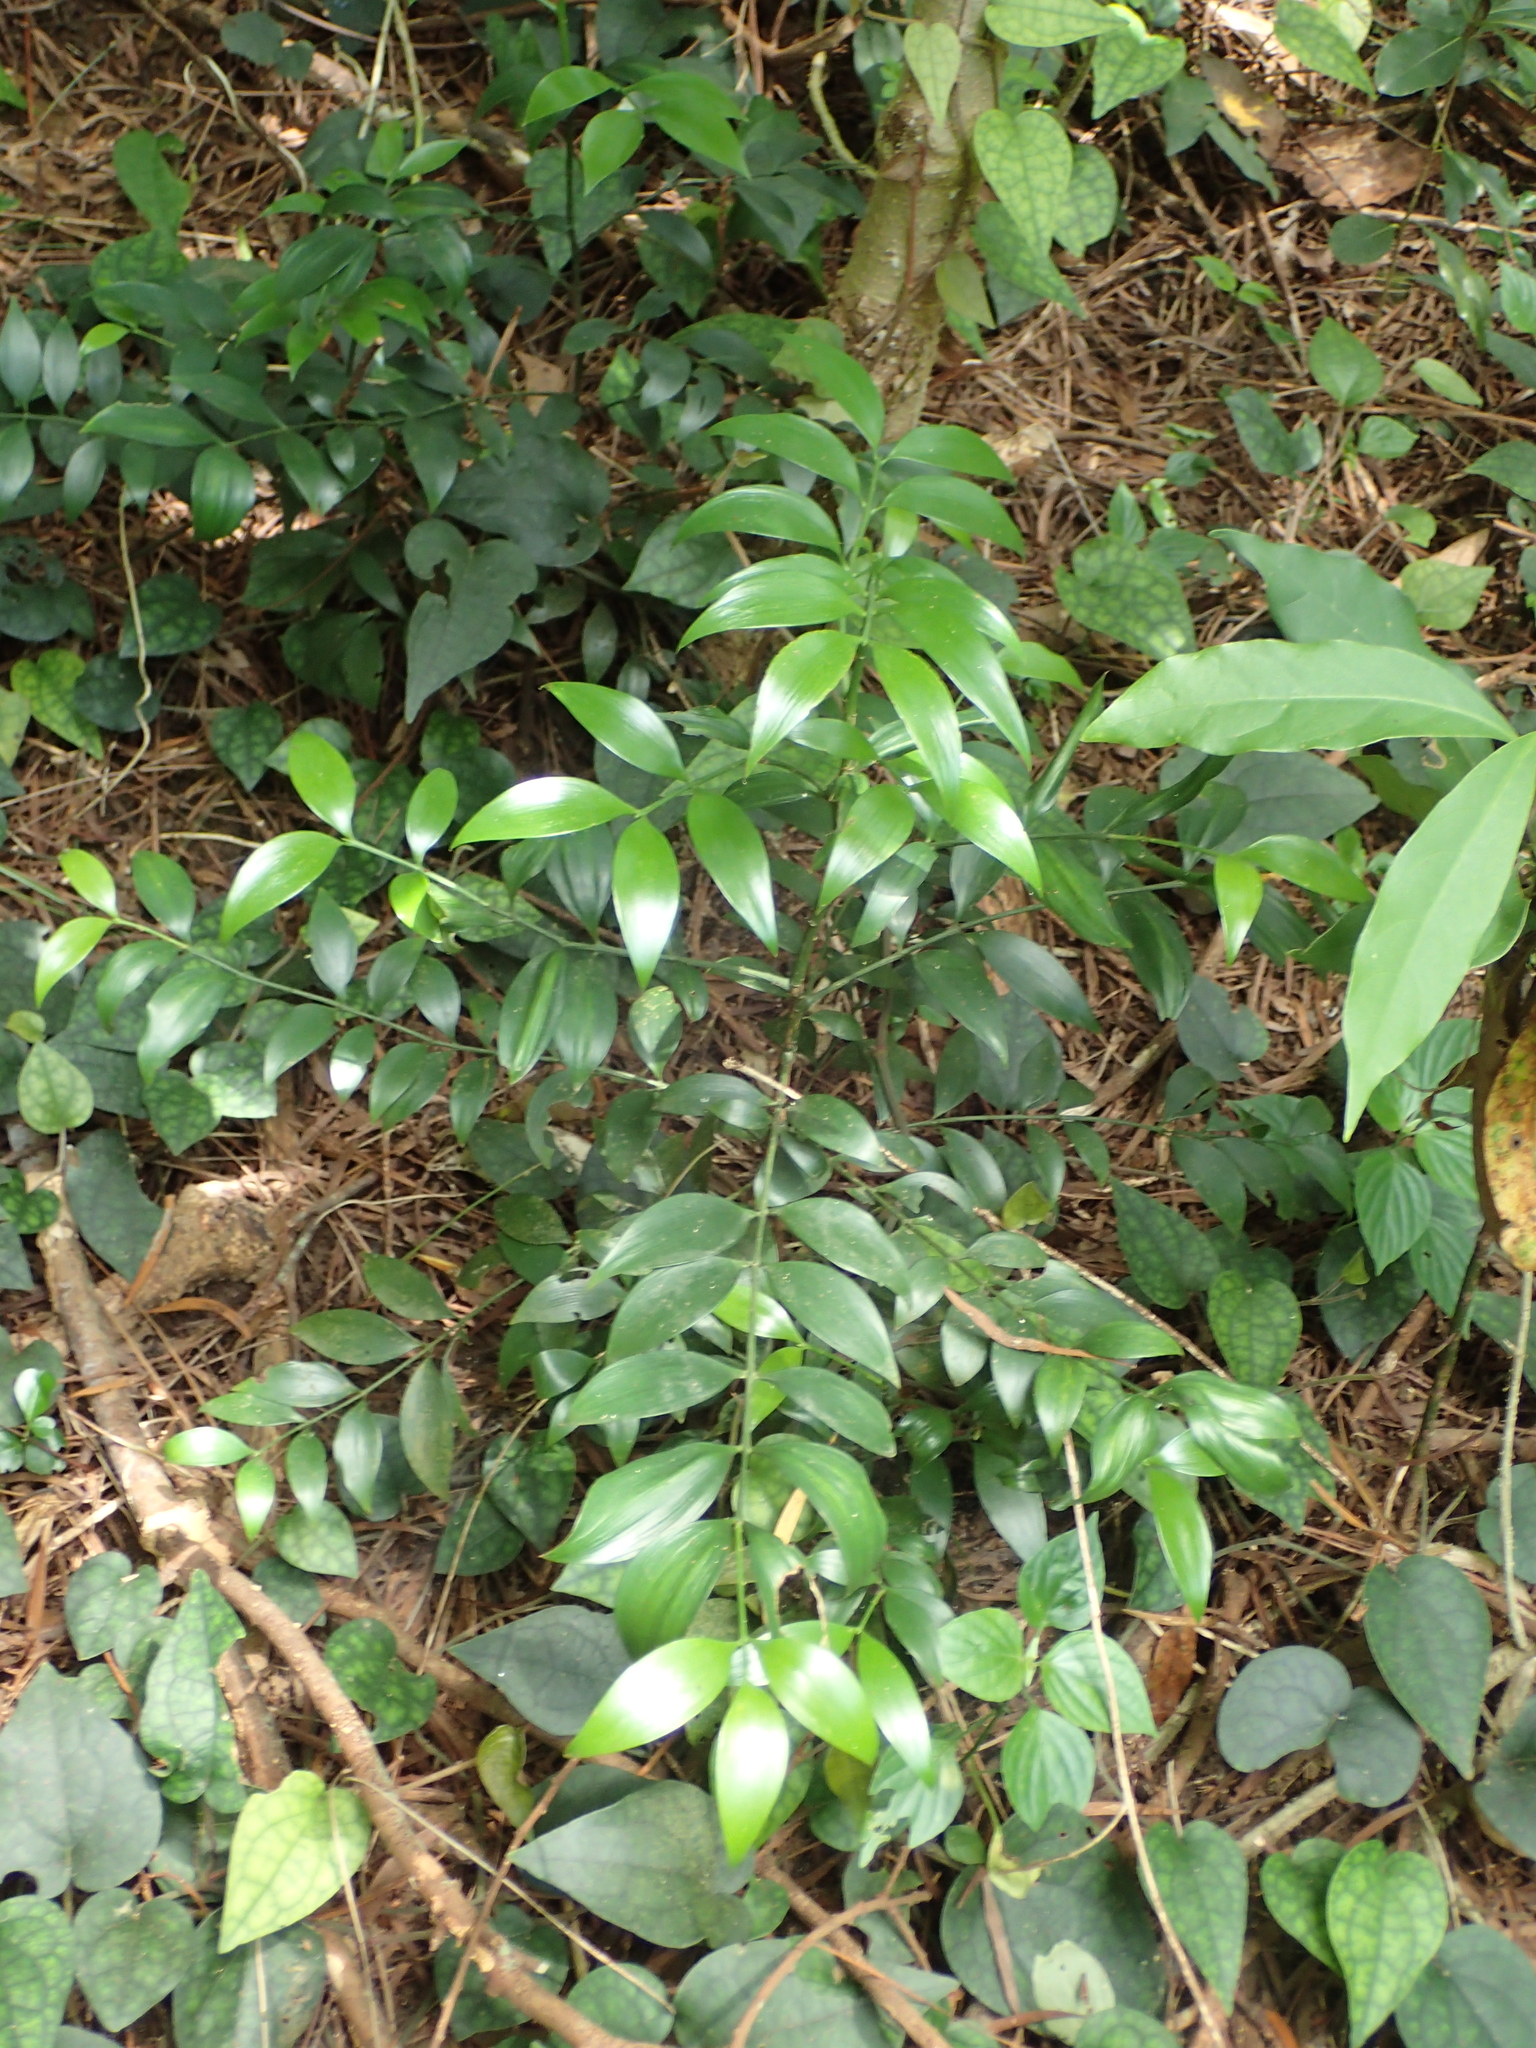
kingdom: Plantae
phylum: Tracheophyta
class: Pinopsida
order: Pinales
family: Podocarpaceae
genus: Nageia
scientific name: Nageia nagi
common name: Kaphal
